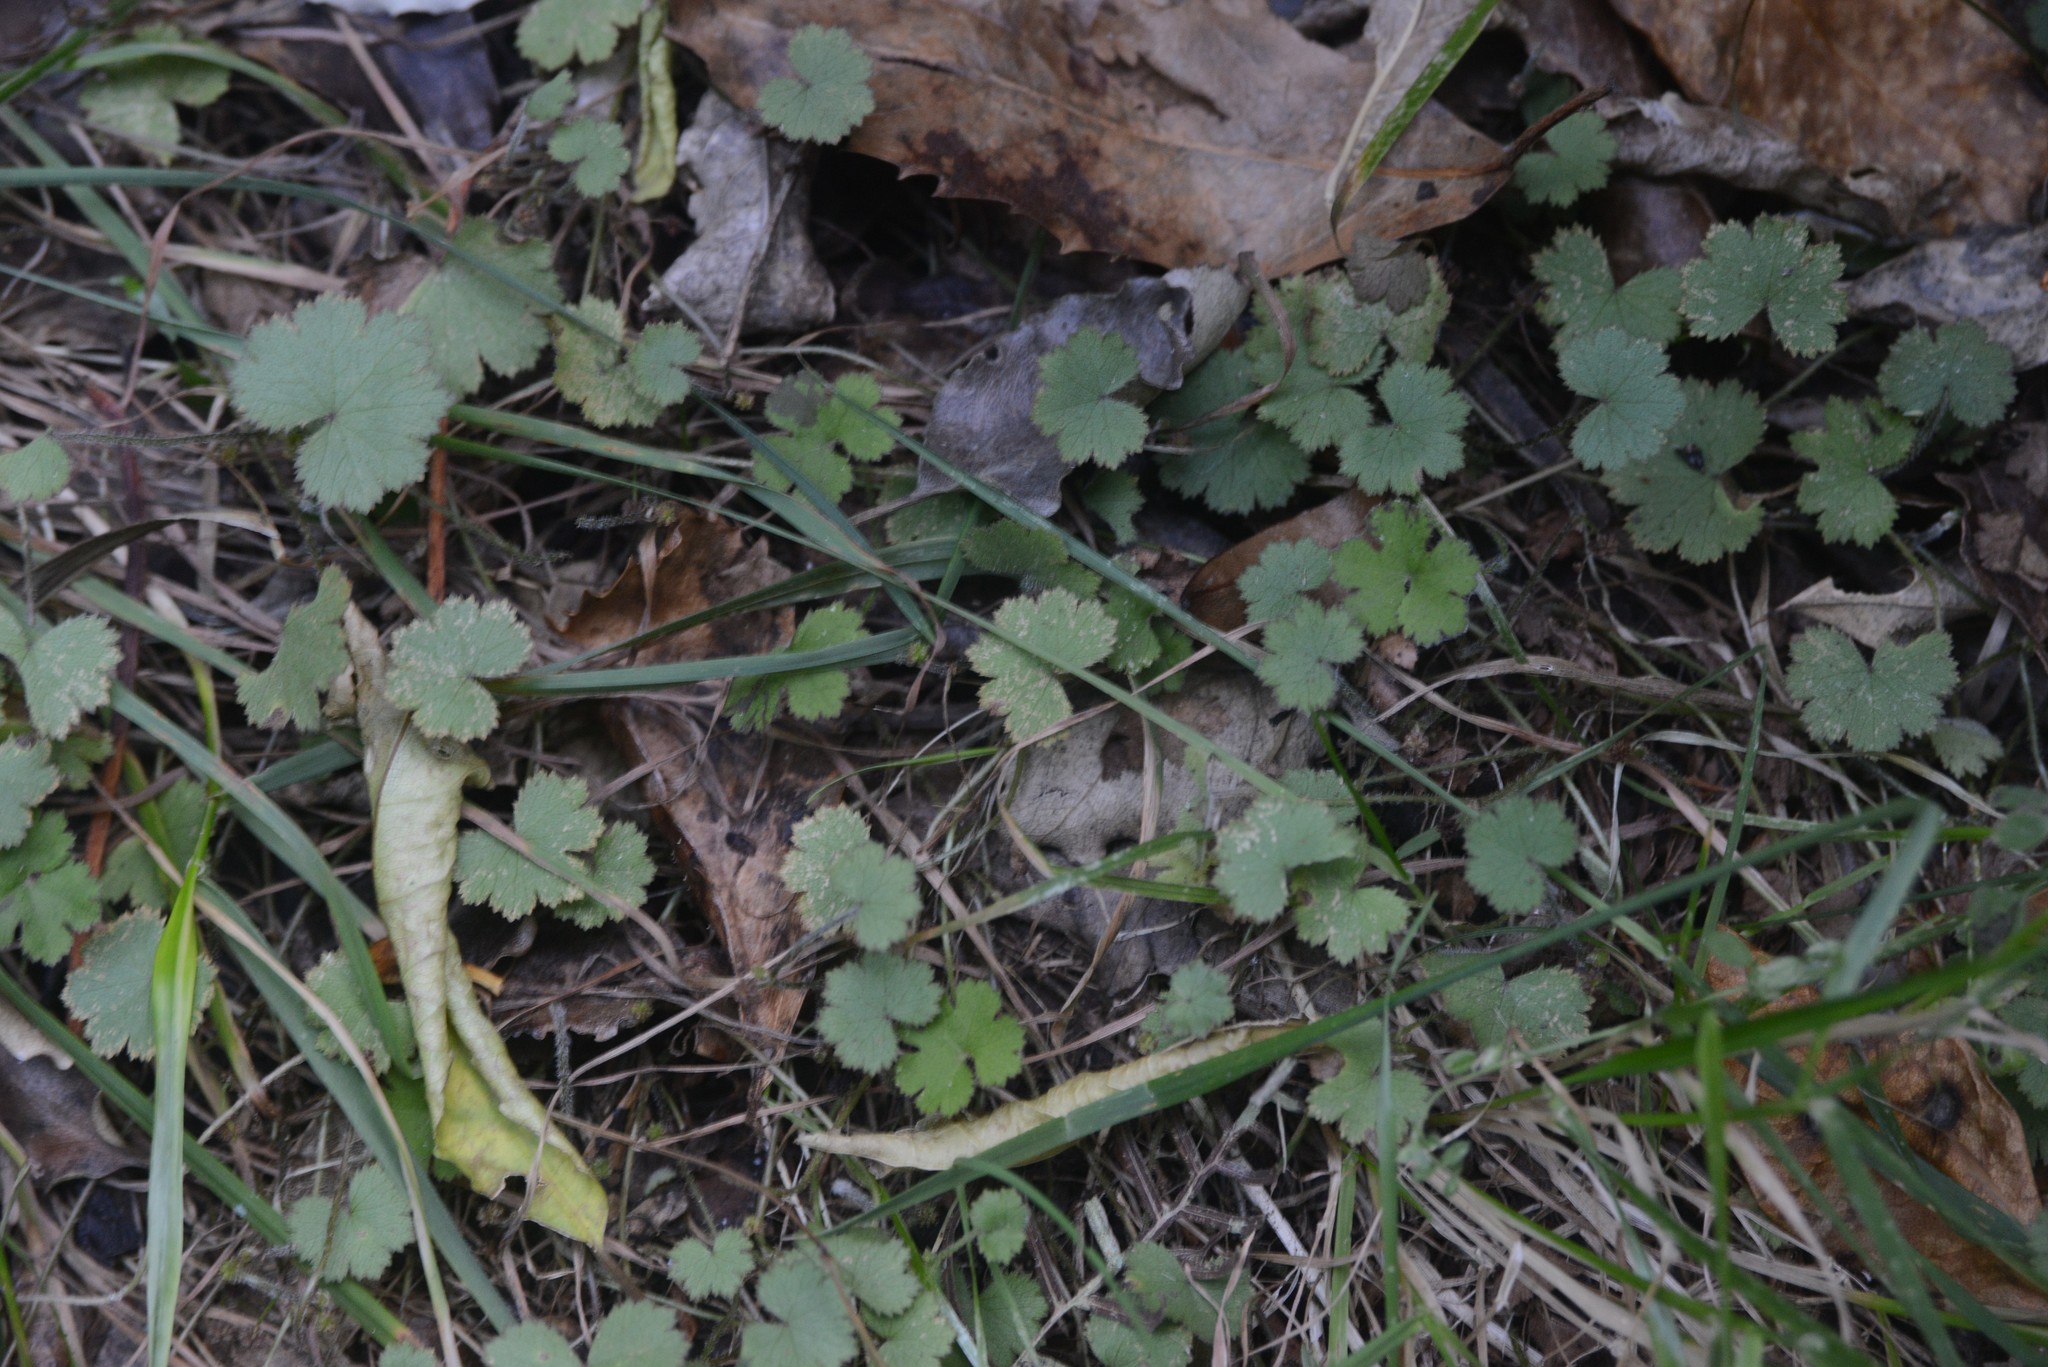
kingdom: Plantae
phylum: Tracheophyta
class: Magnoliopsida
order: Apiales
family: Araliaceae
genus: Hydrocotyle
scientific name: Hydrocotyle moschata
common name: Hairy pennywort
